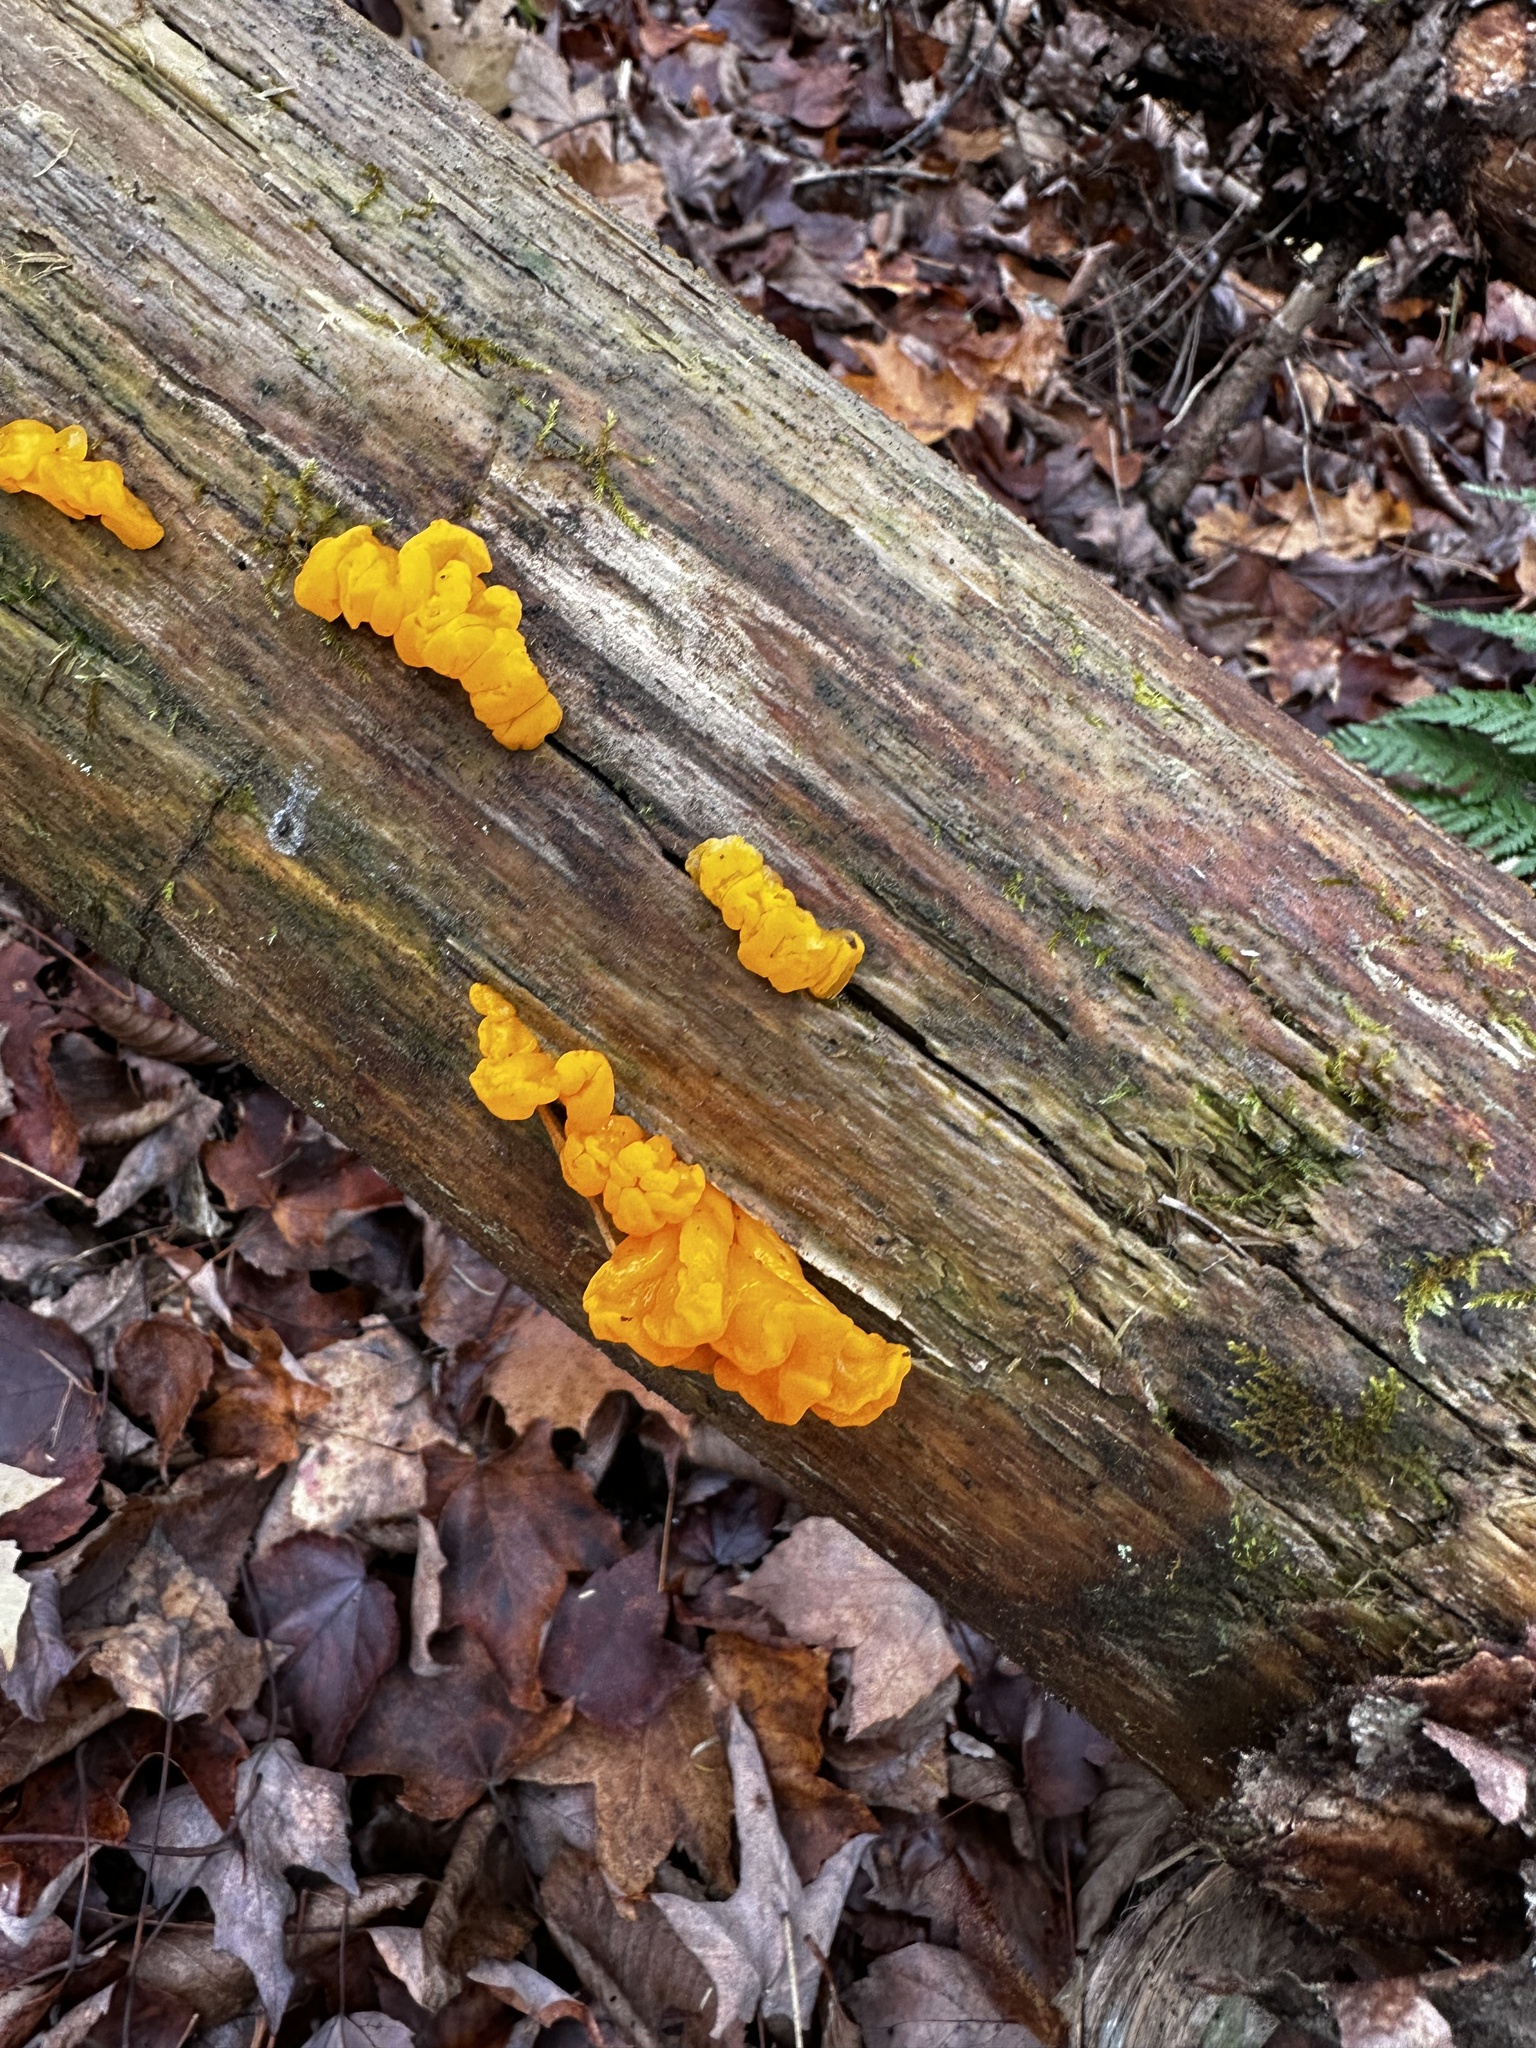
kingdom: Fungi
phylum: Basidiomycota
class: Dacrymycetes
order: Dacrymycetales
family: Dacrymycetaceae
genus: Dacrymyces
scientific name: Dacrymyces chrysospermus
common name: Orange jelly spot
